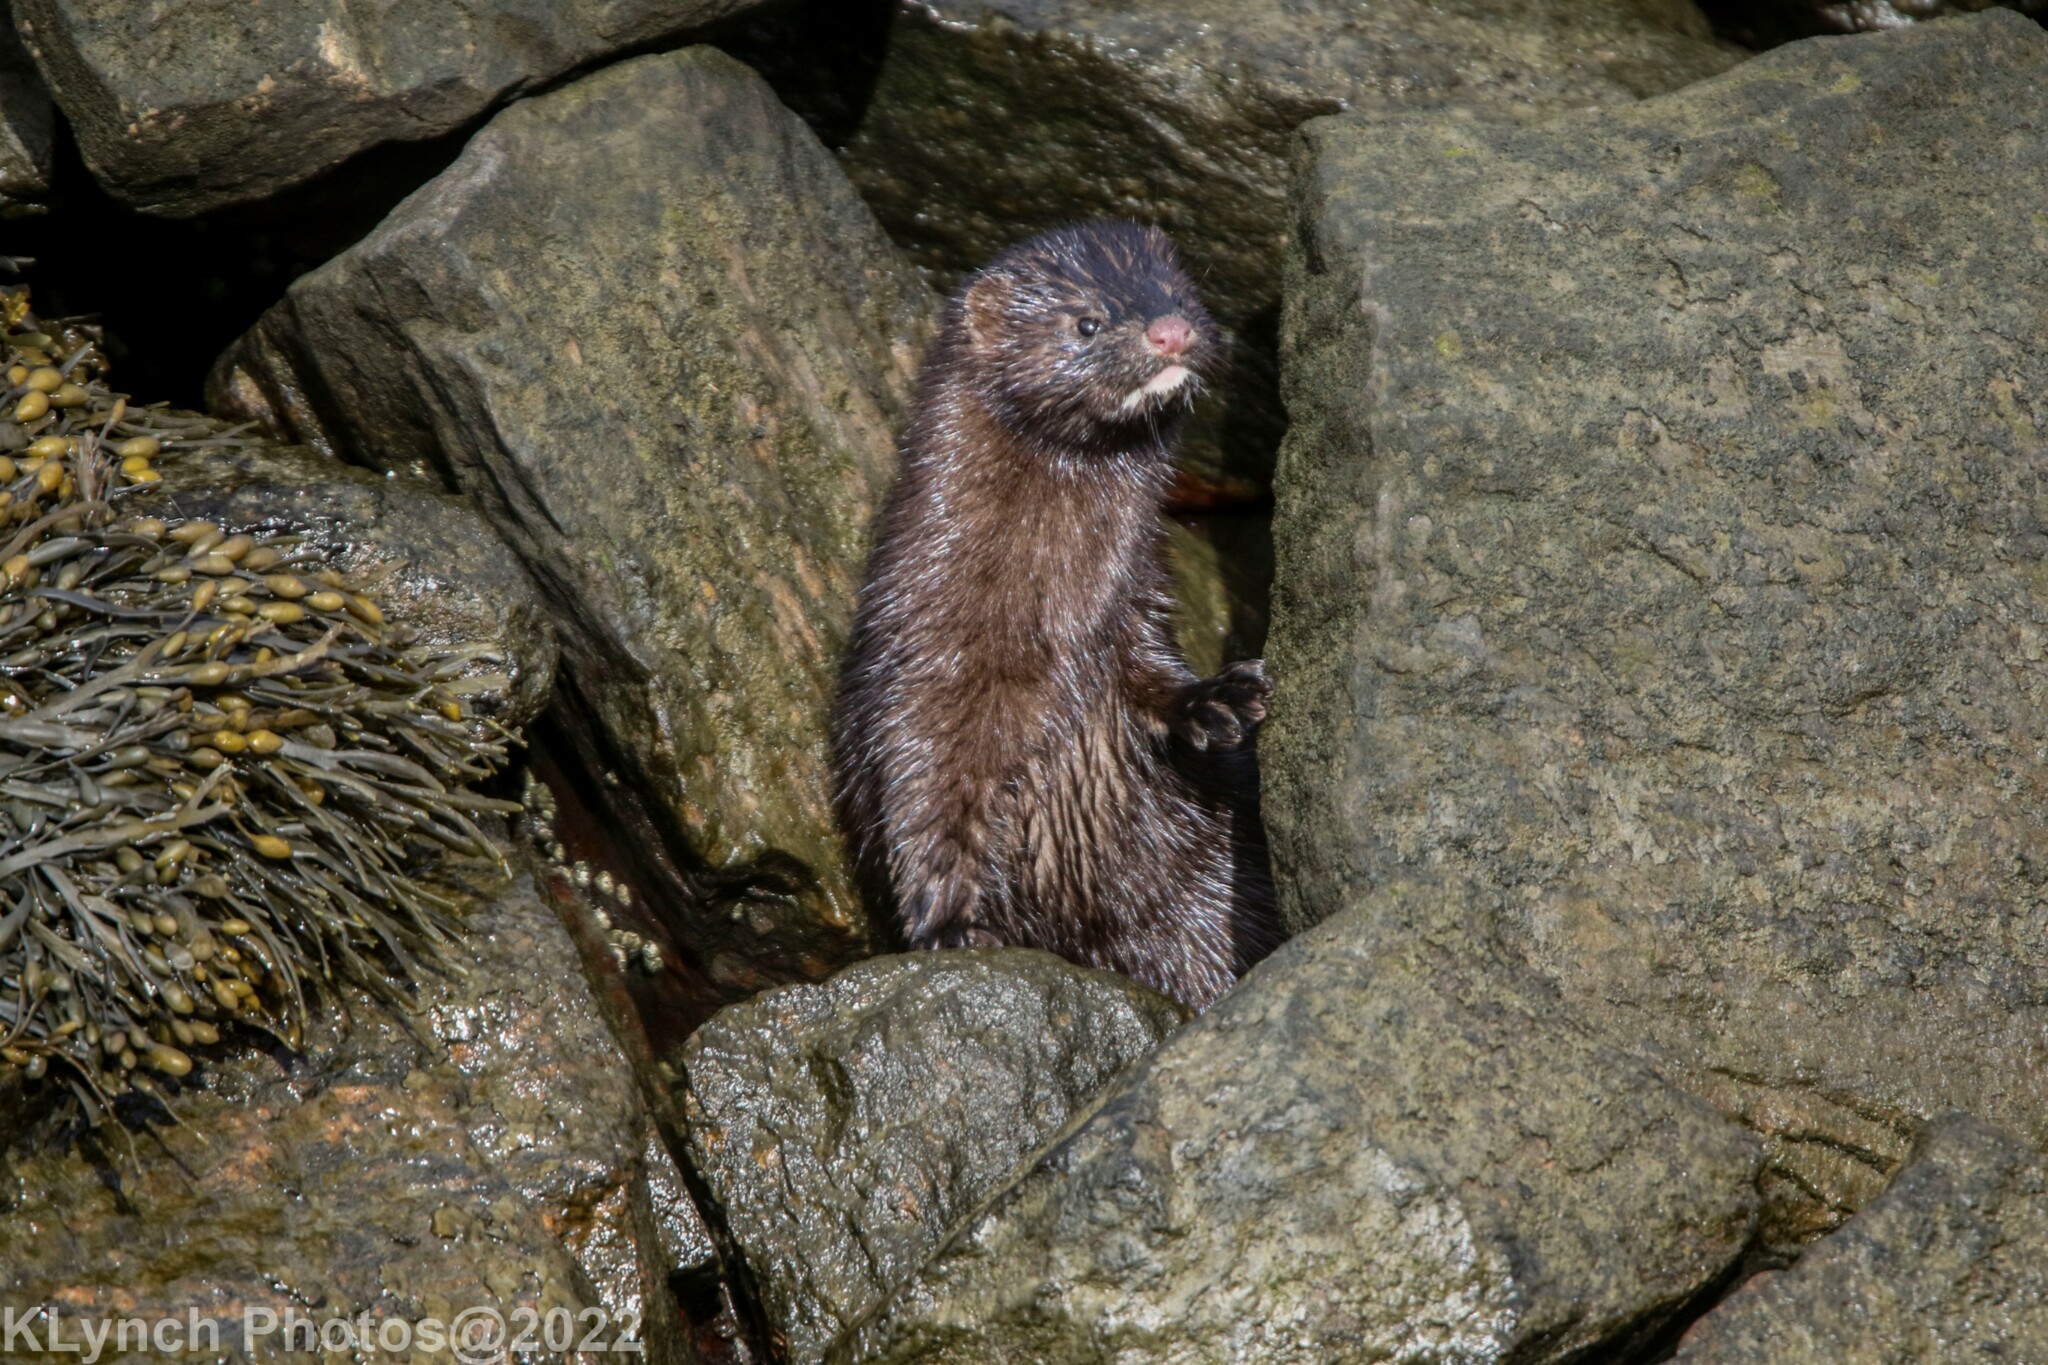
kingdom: Animalia
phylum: Chordata
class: Mammalia
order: Carnivora
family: Mustelidae
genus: Mustela
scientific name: Mustela
